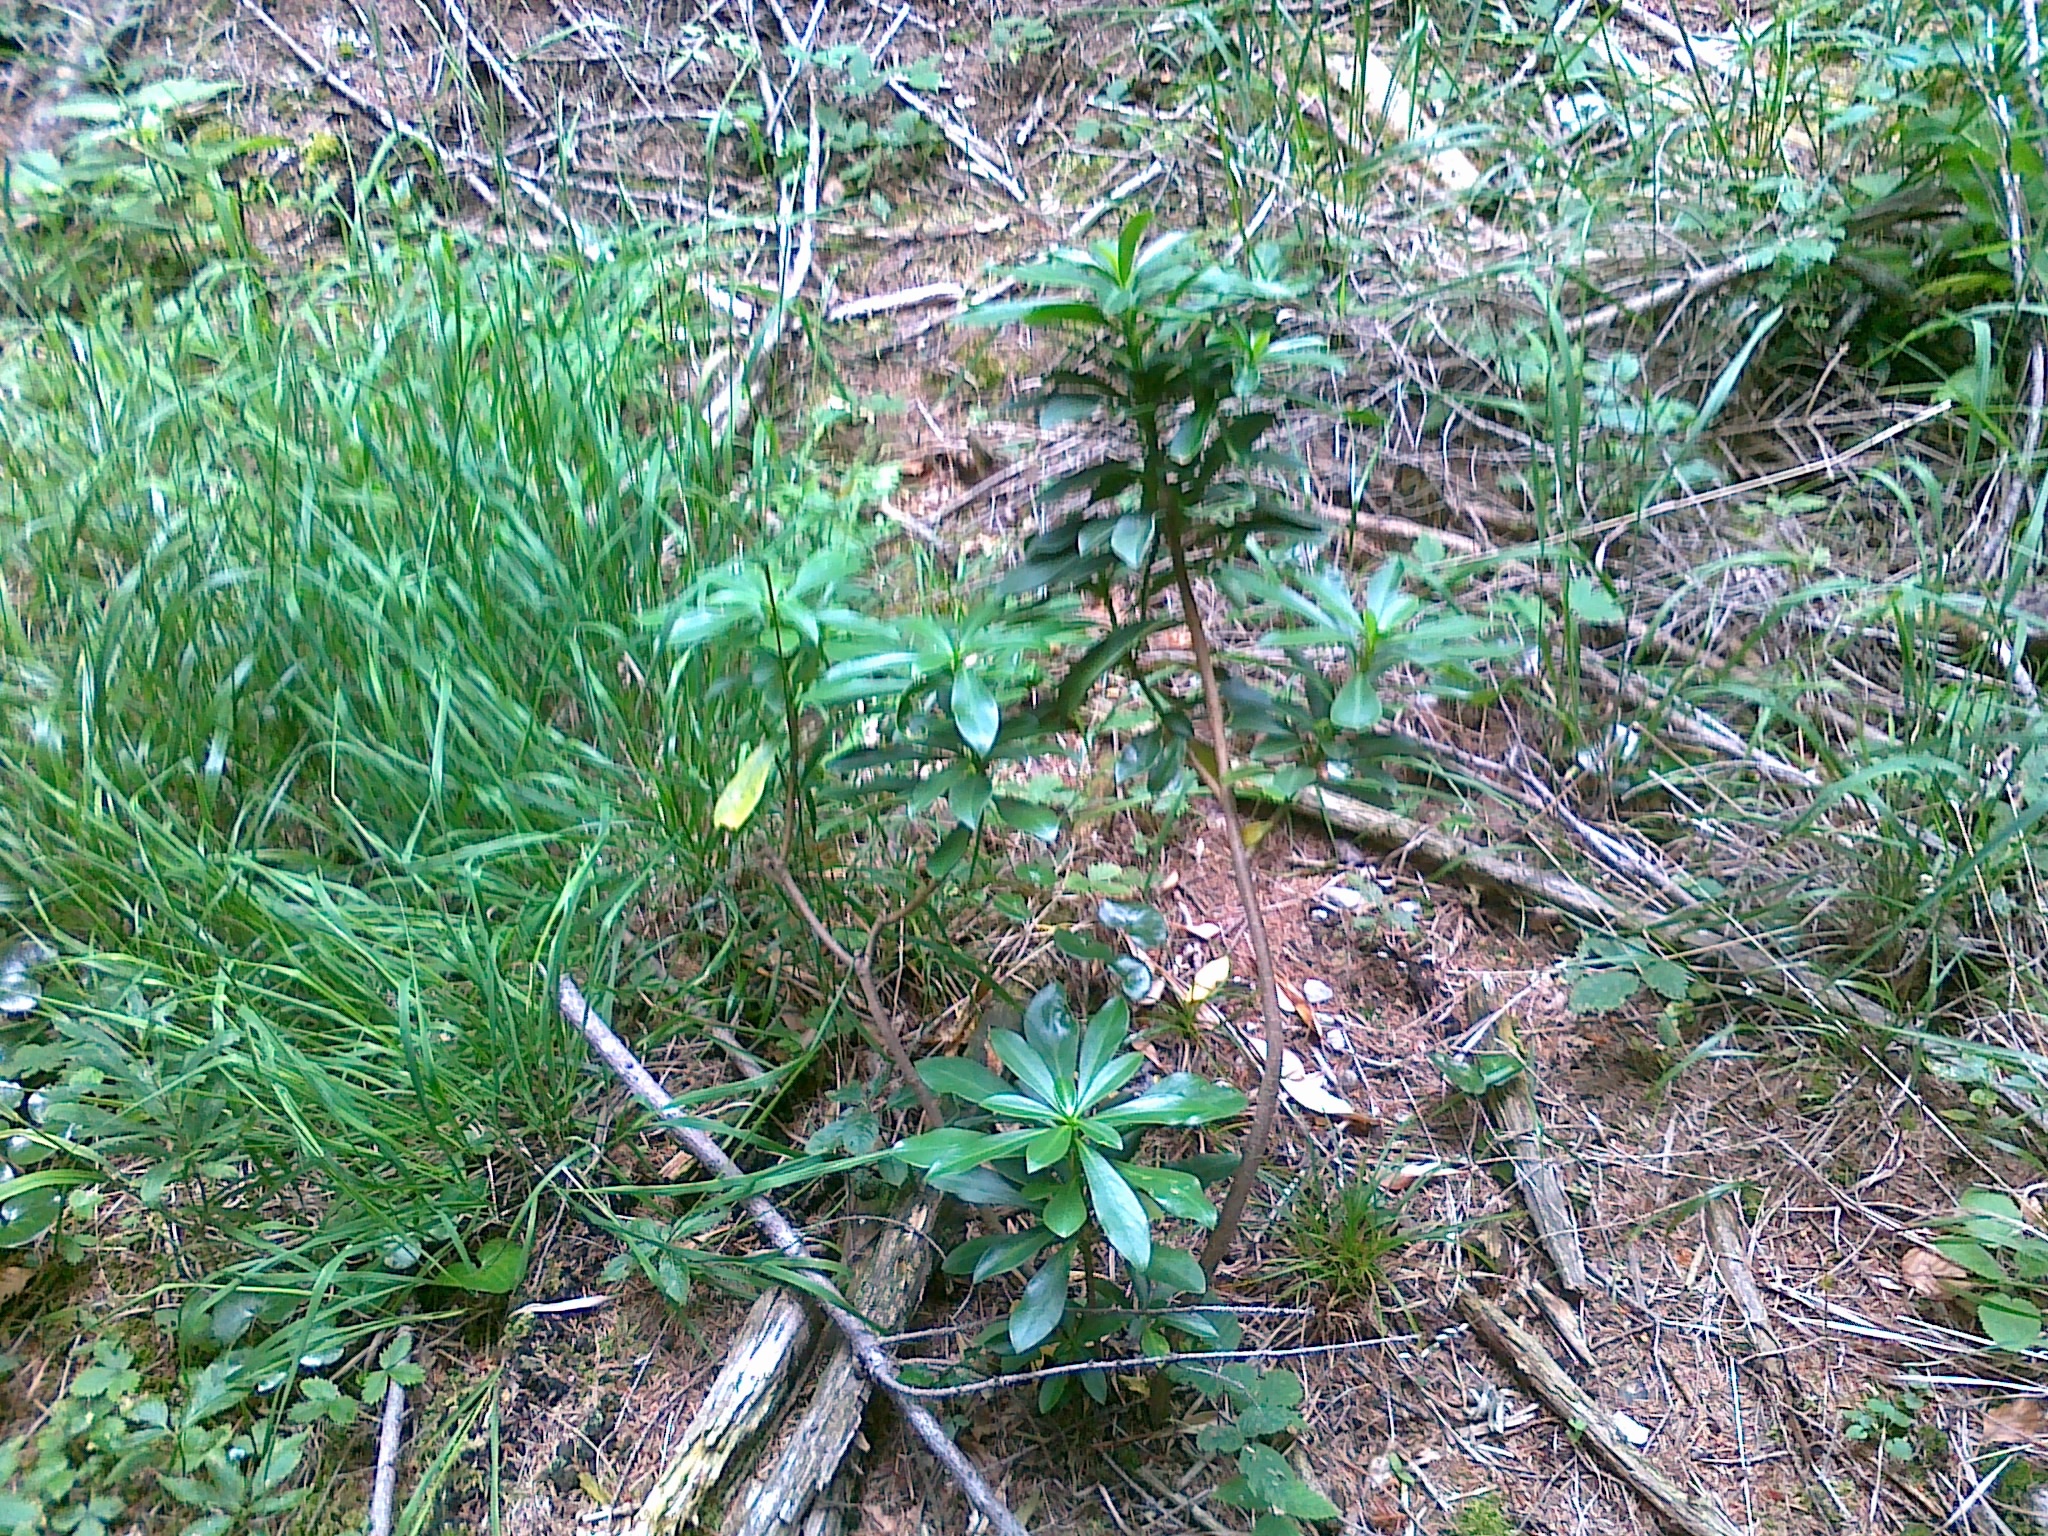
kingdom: Plantae
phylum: Tracheophyta
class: Magnoliopsida
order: Malvales
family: Thymelaeaceae
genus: Daphne
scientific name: Daphne laureola
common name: Spurge-laurel
